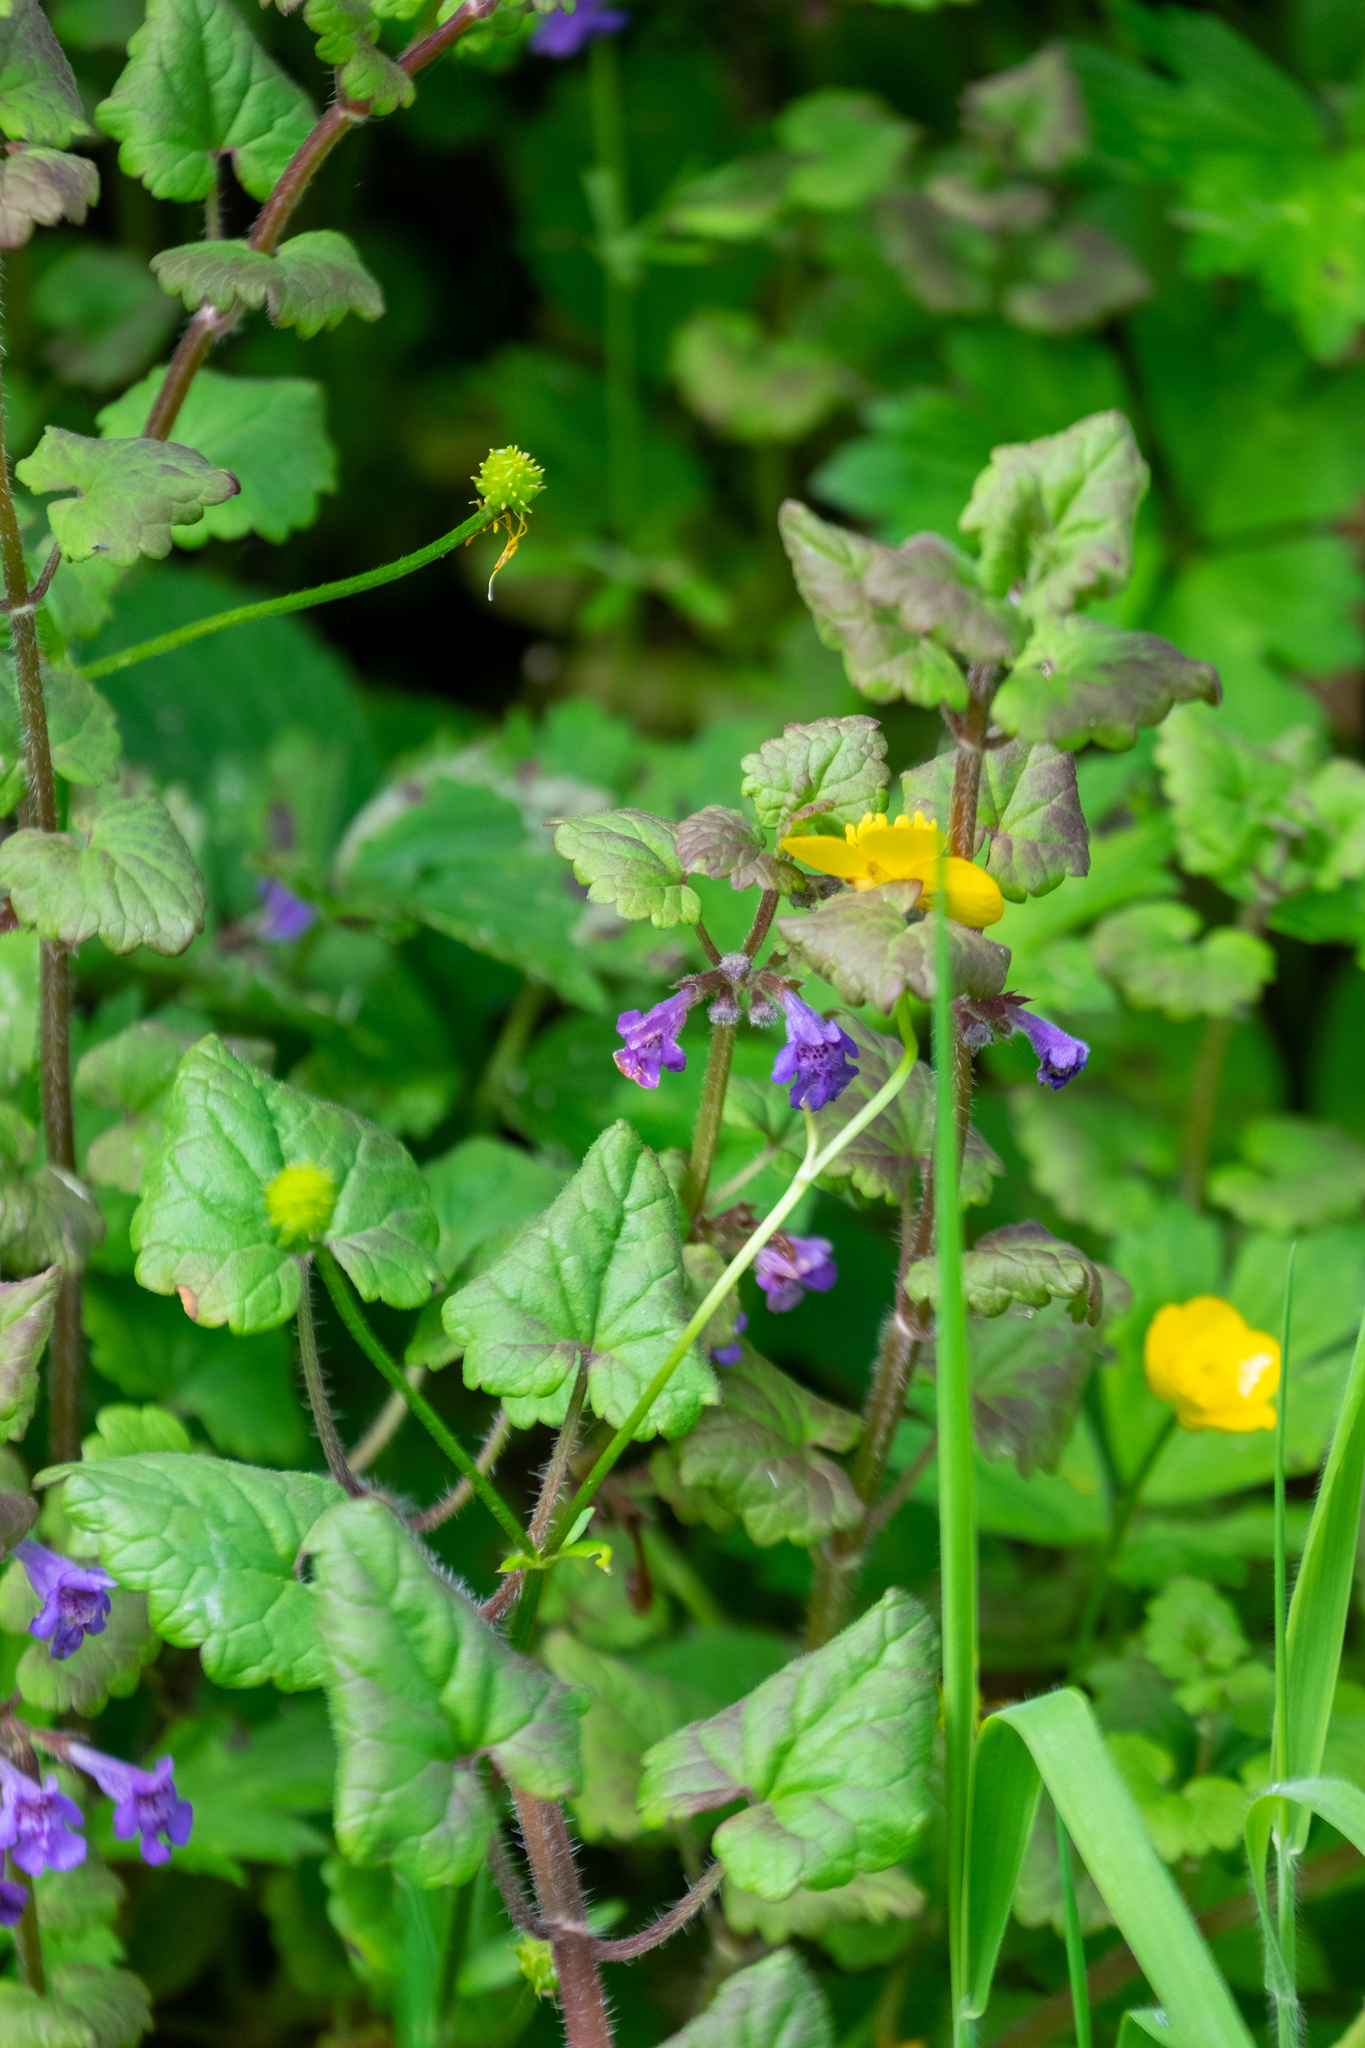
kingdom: Plantae
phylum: Tracheophyta
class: Magnoliopsida
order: Lamiales
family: Lamiaceae
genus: Glechoma
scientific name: Glechoma hederacea
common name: Ground ivy
